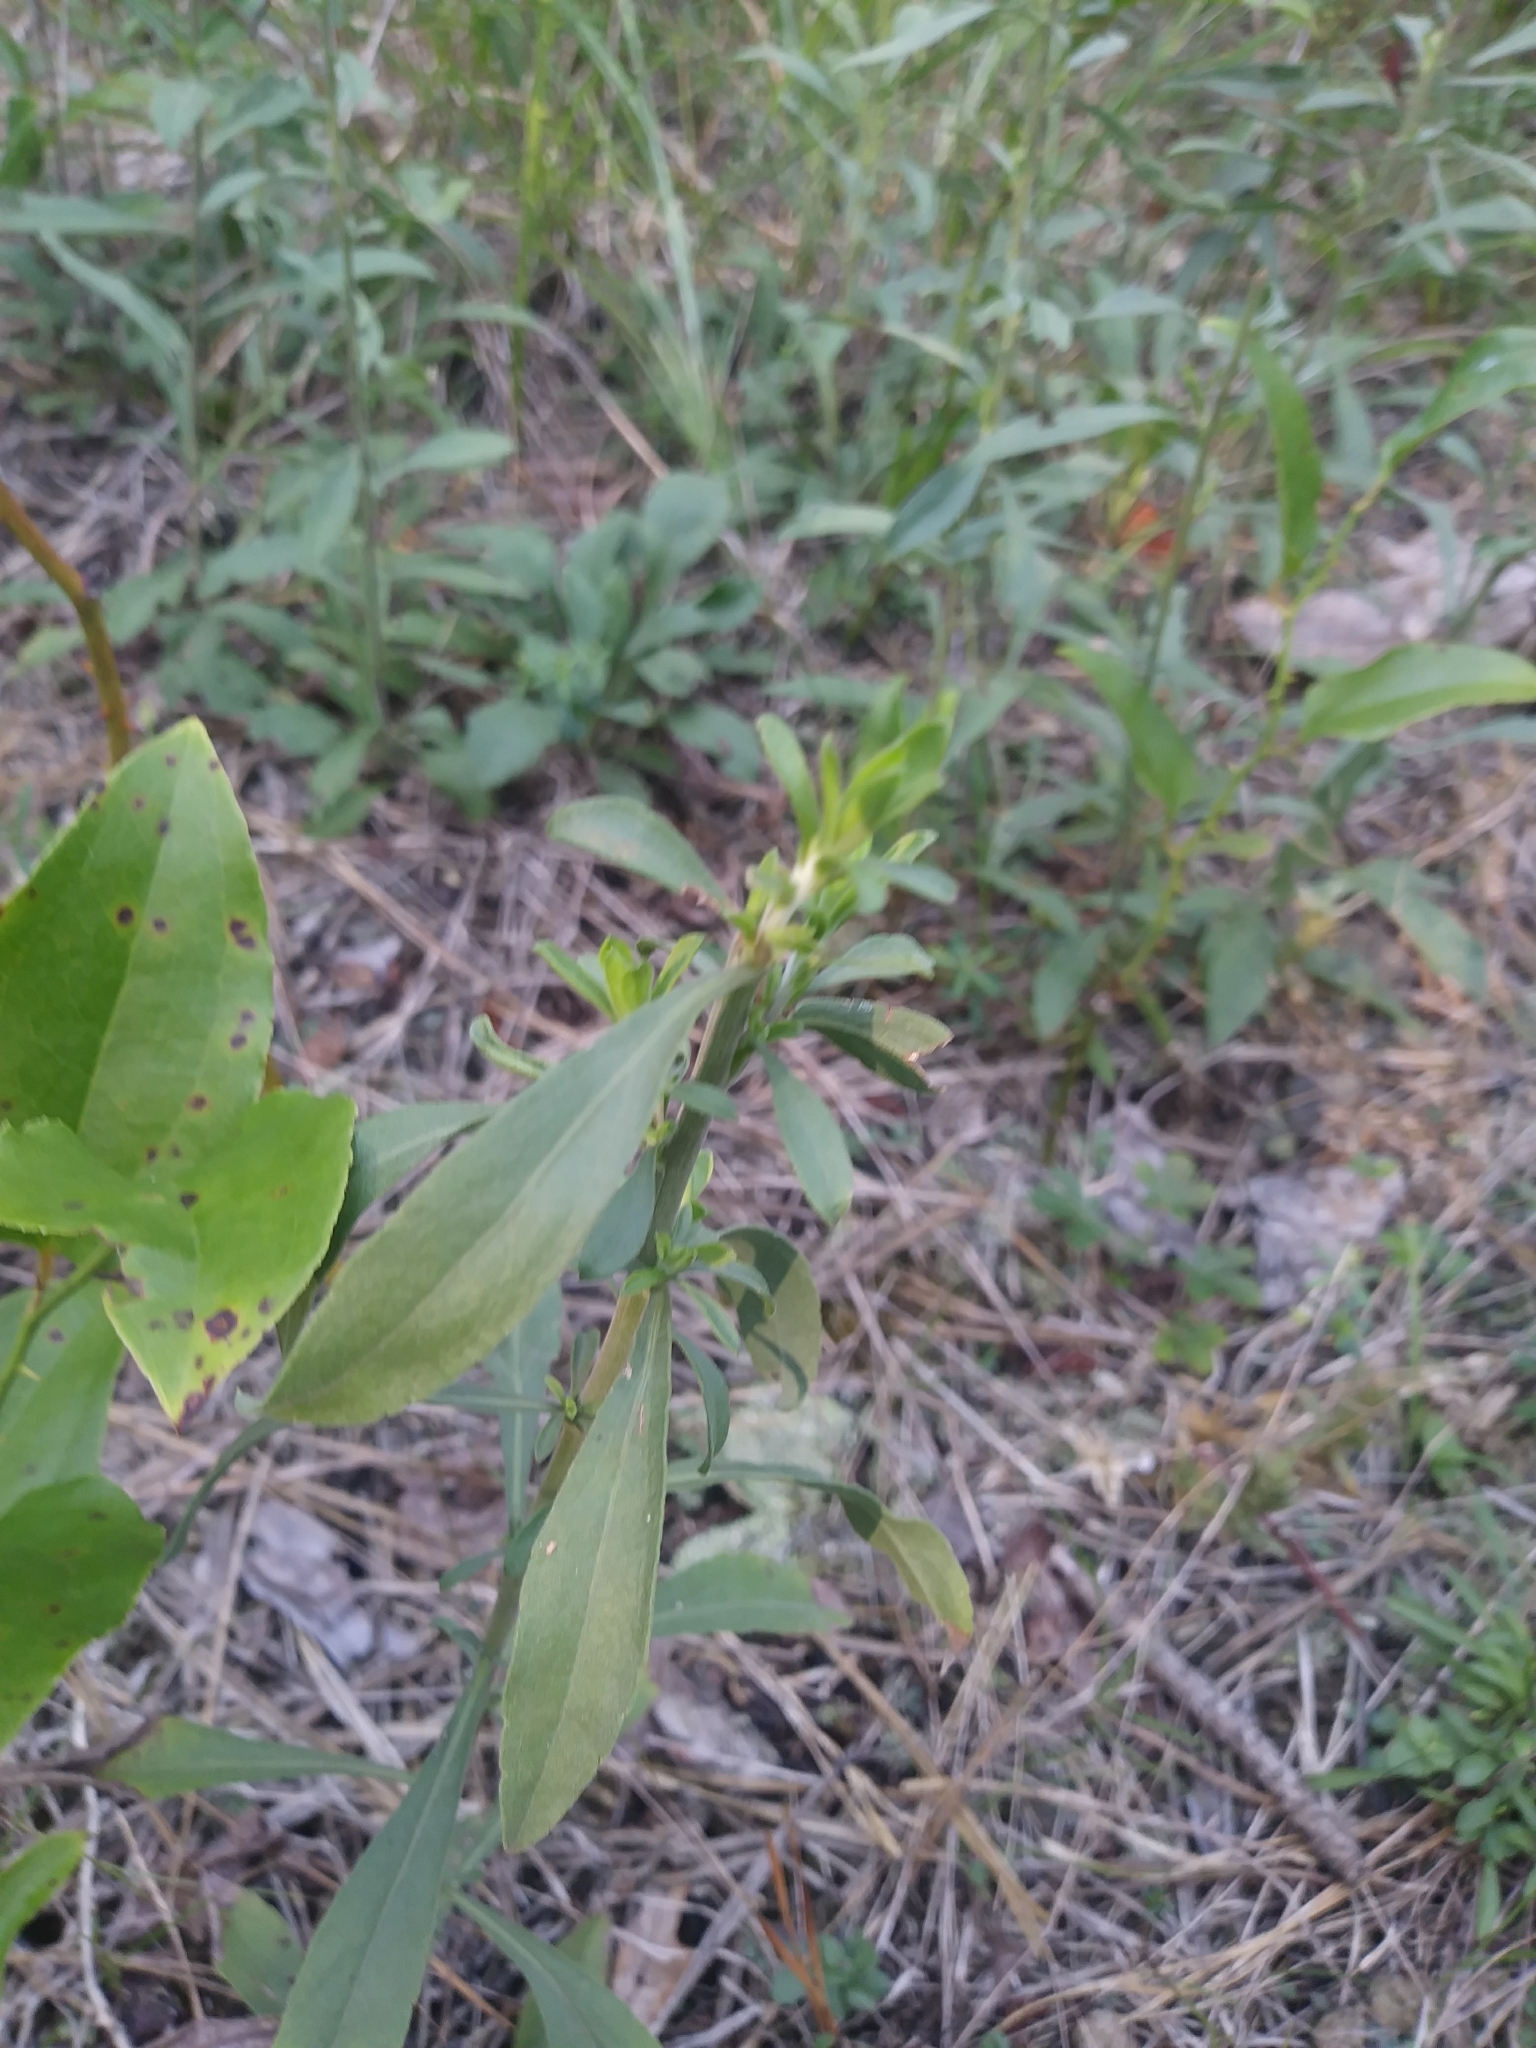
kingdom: Plantae
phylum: Tracheophyta
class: Magnoliopsida
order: Asterales
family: Asteraceae
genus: Solidago
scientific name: Solidago nemoralis
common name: Grey goldenrod
